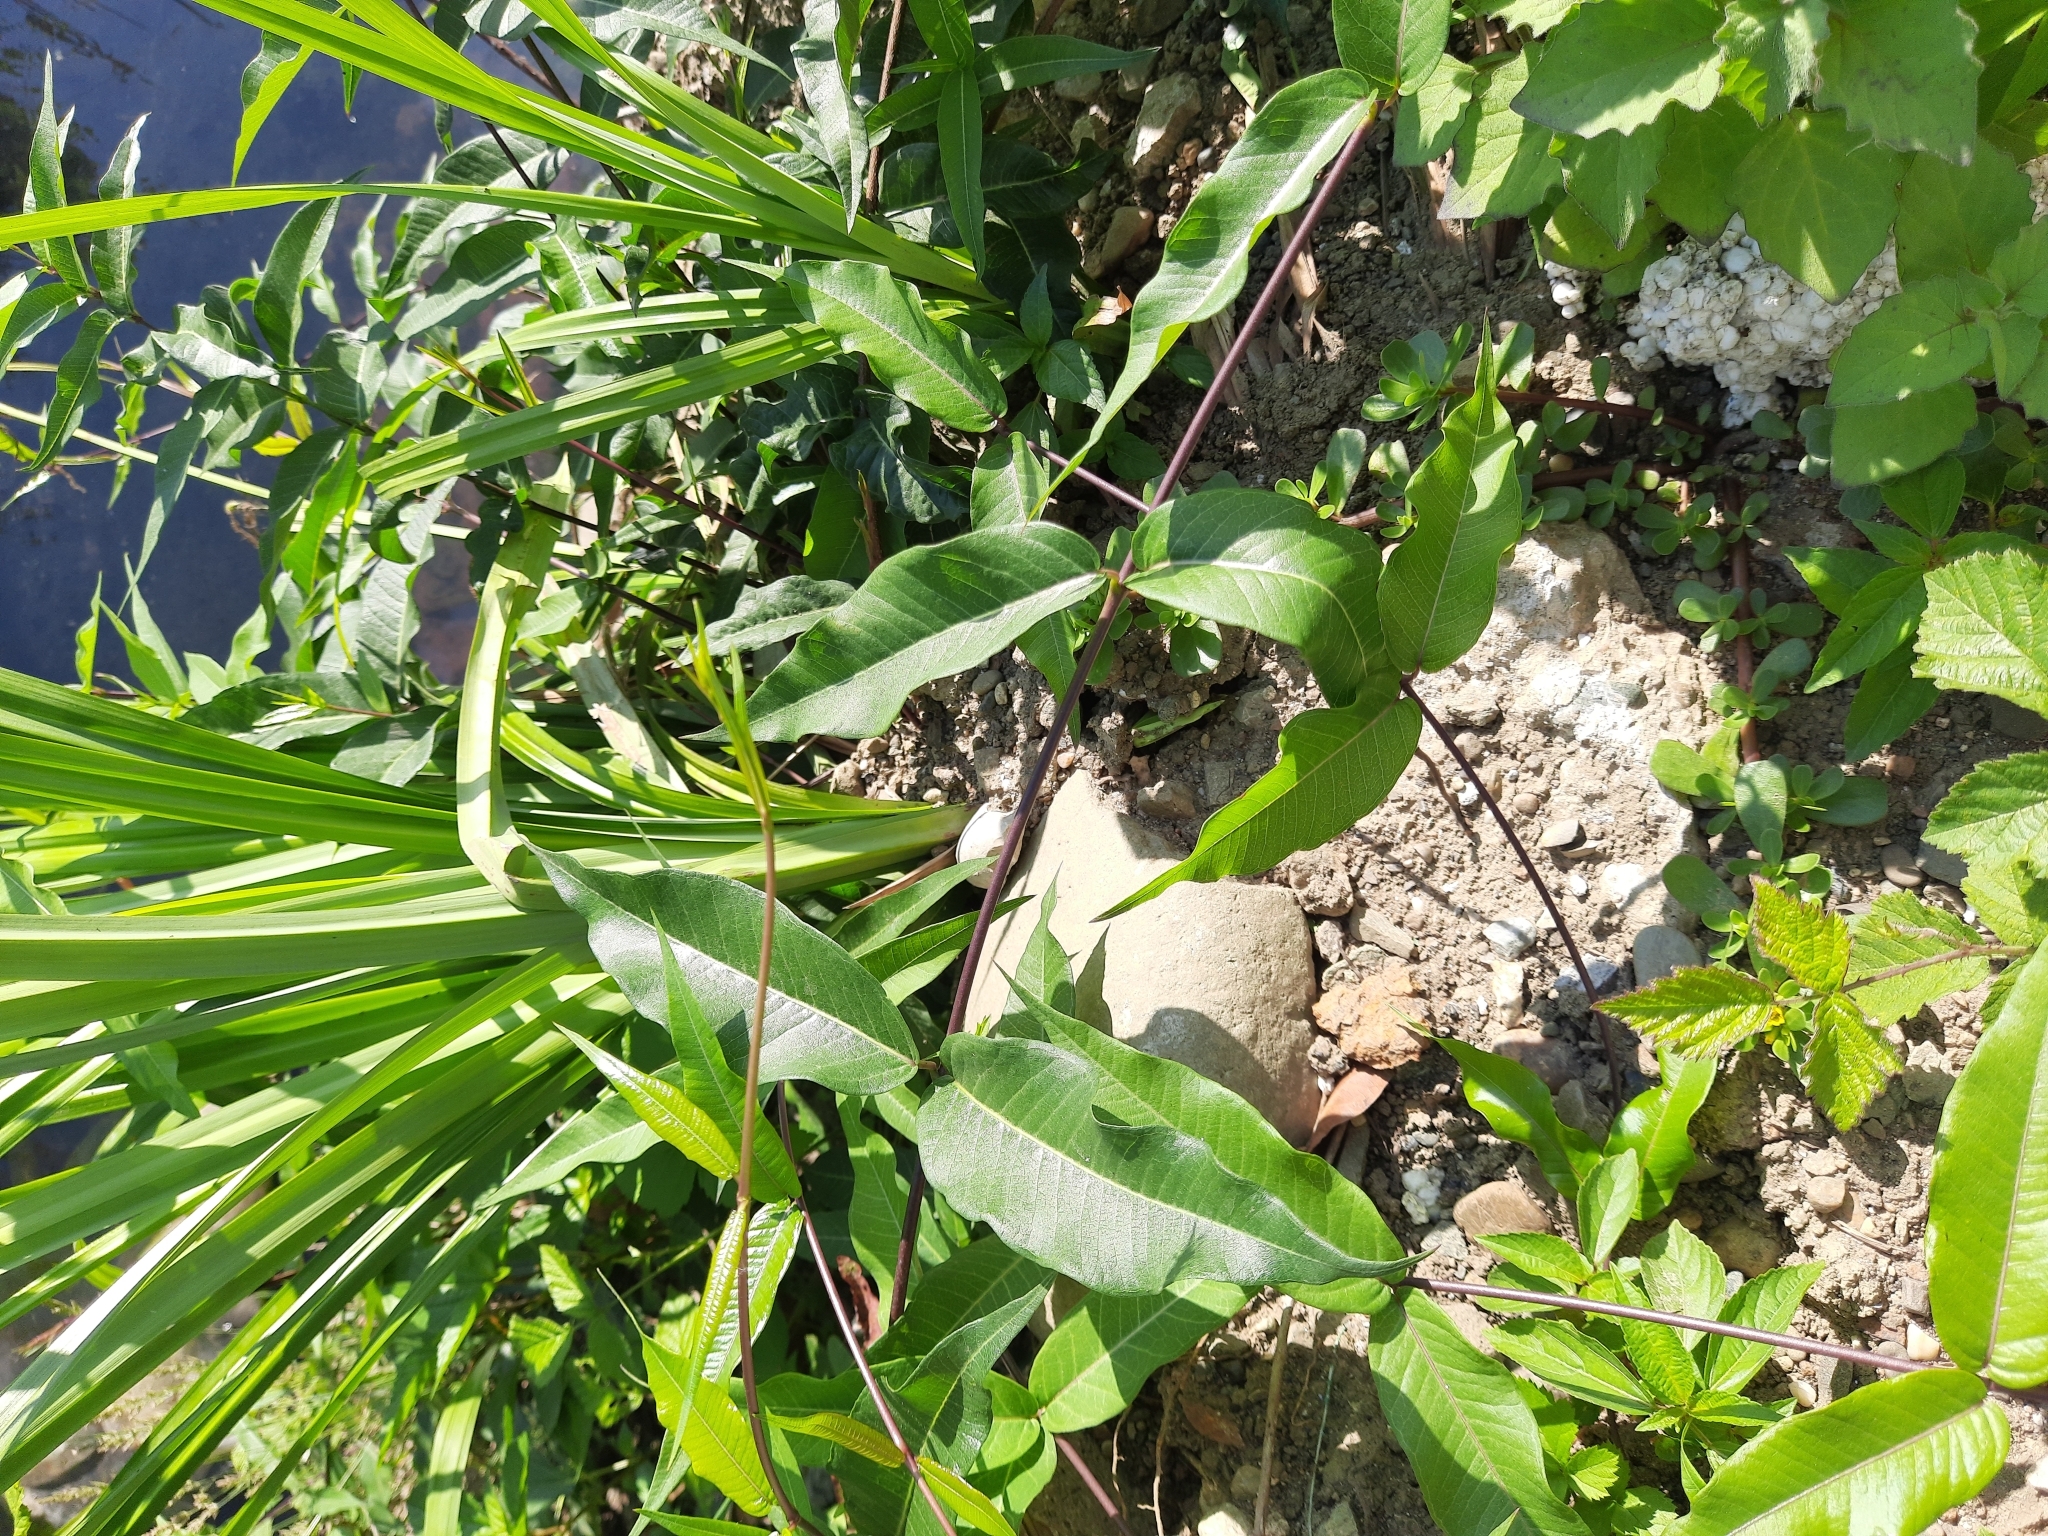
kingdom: Plantae
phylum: Tracheophyta
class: Magnoliopsida
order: Gentianales
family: Apocynaceae
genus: Periploca
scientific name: Periploca graeca
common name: Silkvine
